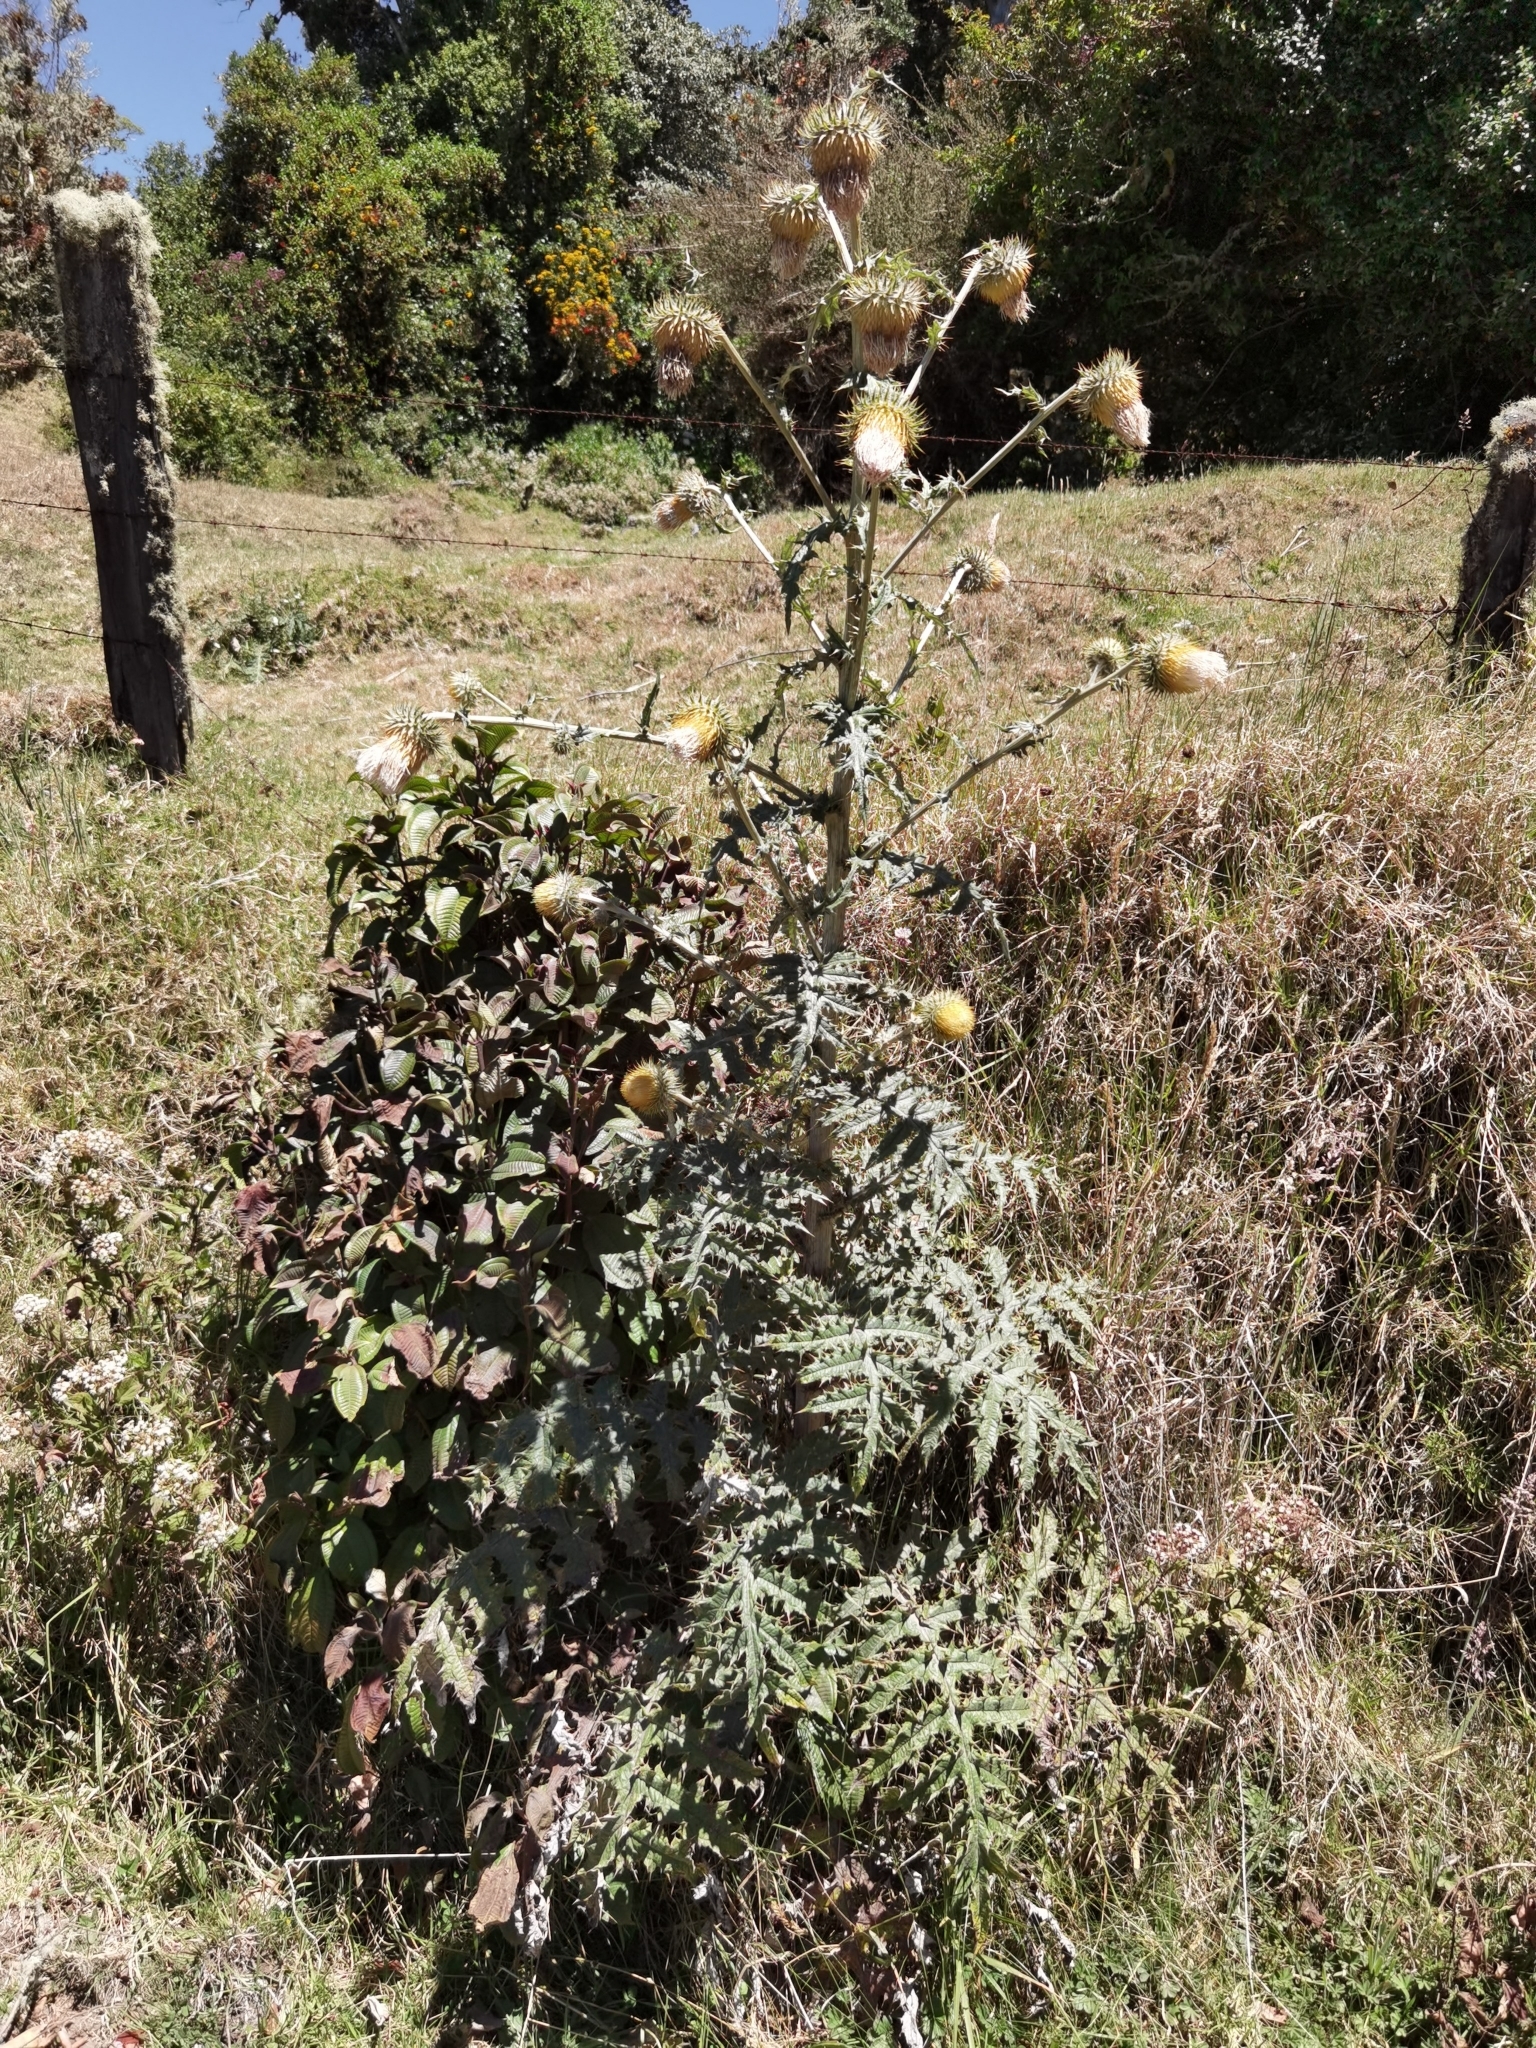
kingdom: Plantae
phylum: Tracheophyta
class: Magnoliopsida
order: Asterales
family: Asteraceae
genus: Cirsium
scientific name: Cirsium subcoriaceum
